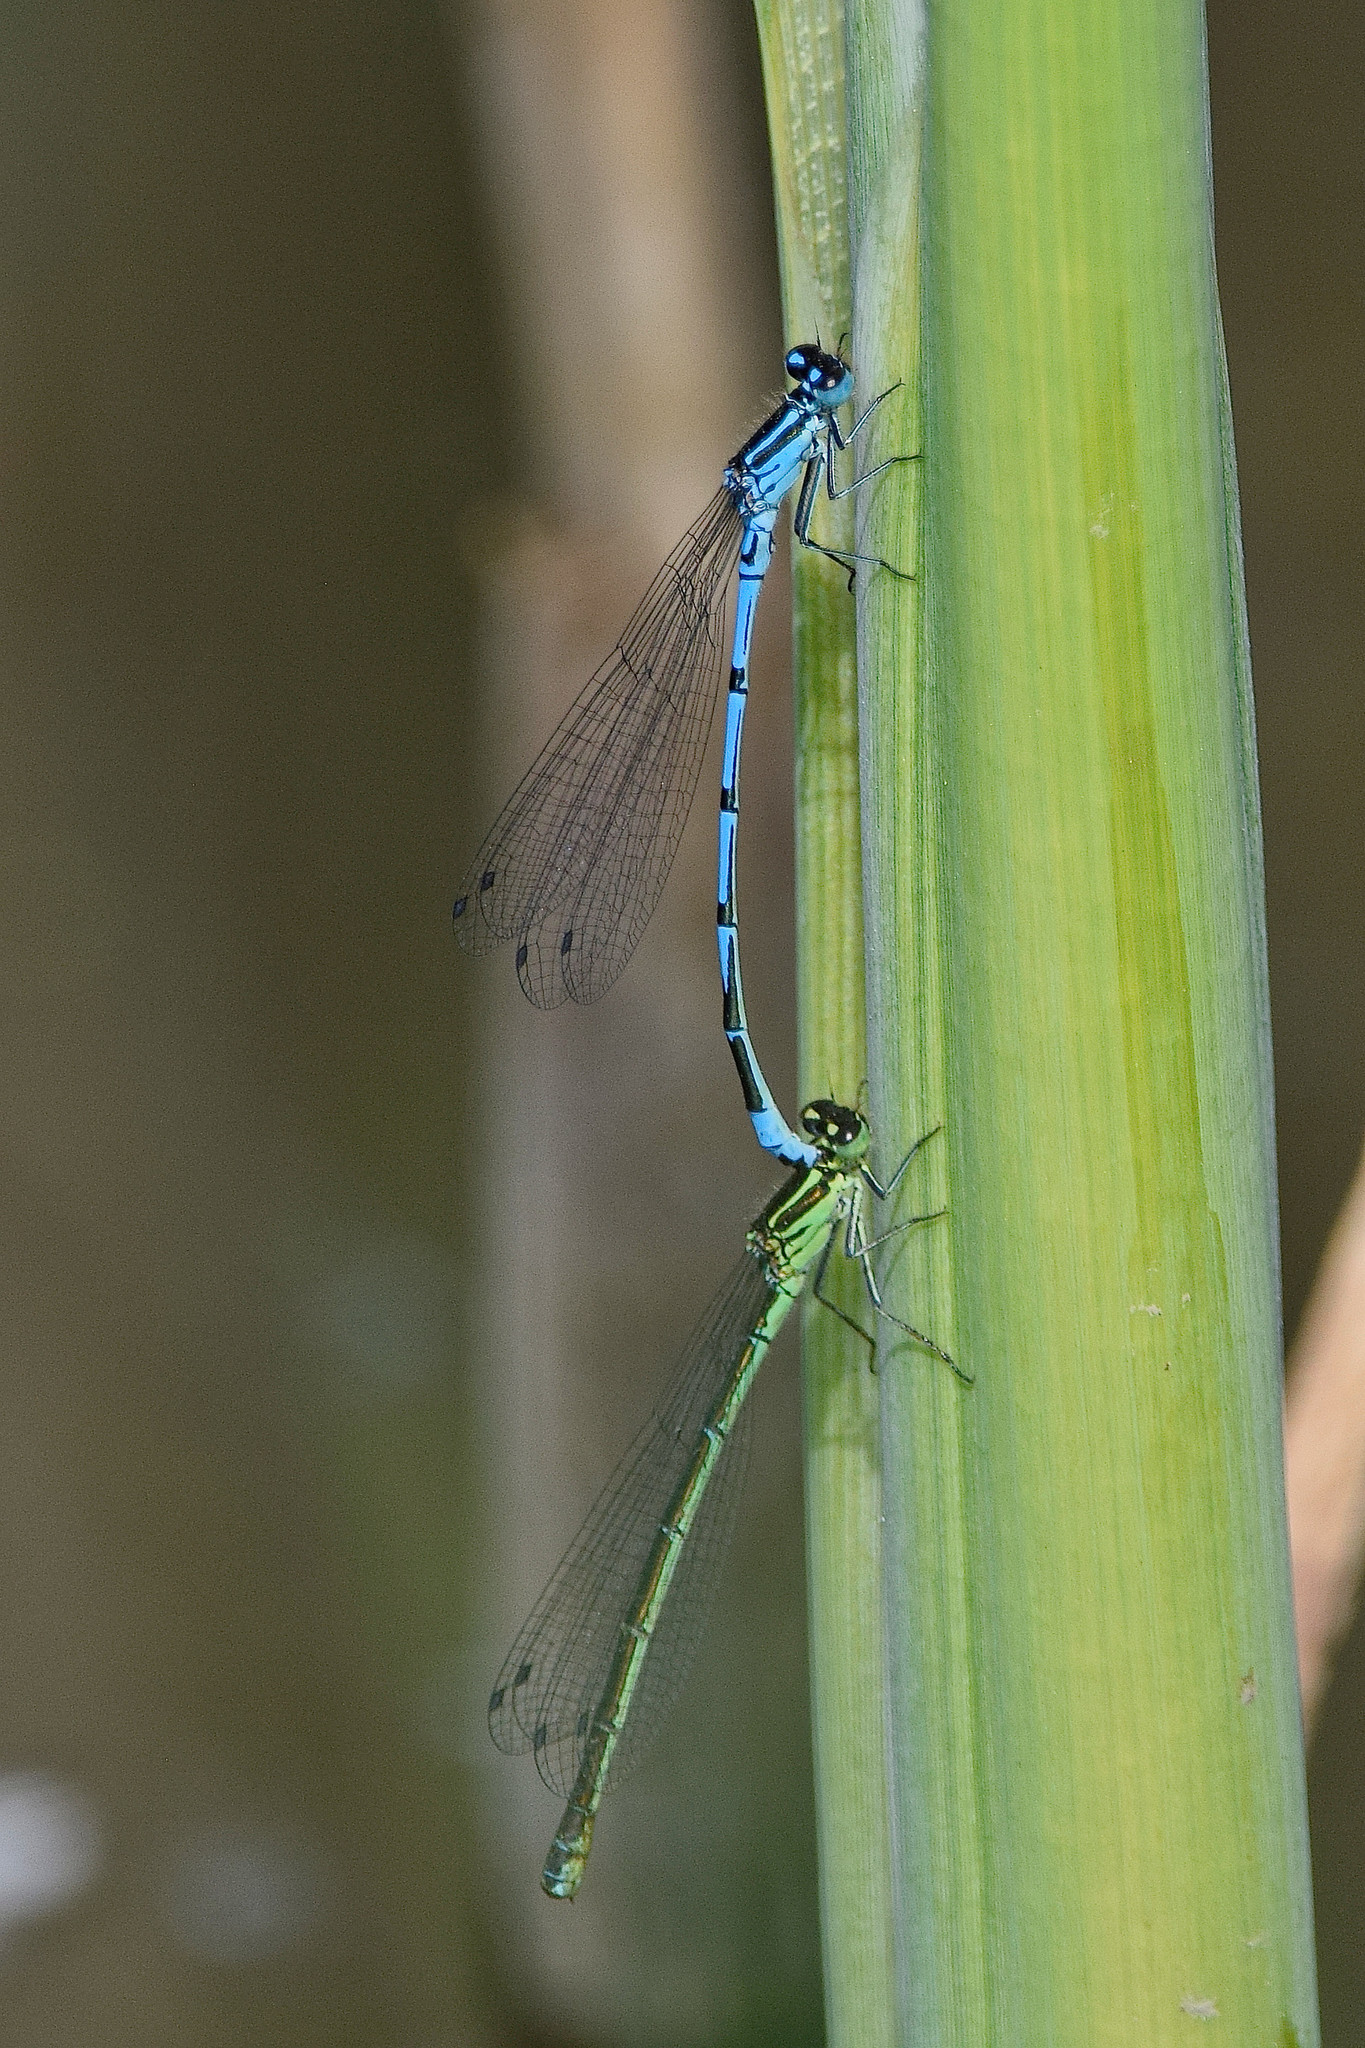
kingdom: Animalia
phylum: Arthropoda
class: Insecta
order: Odonata
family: Coenagrionidae
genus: Coenagrion
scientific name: Coenagrion puella
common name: Azure damselfly
